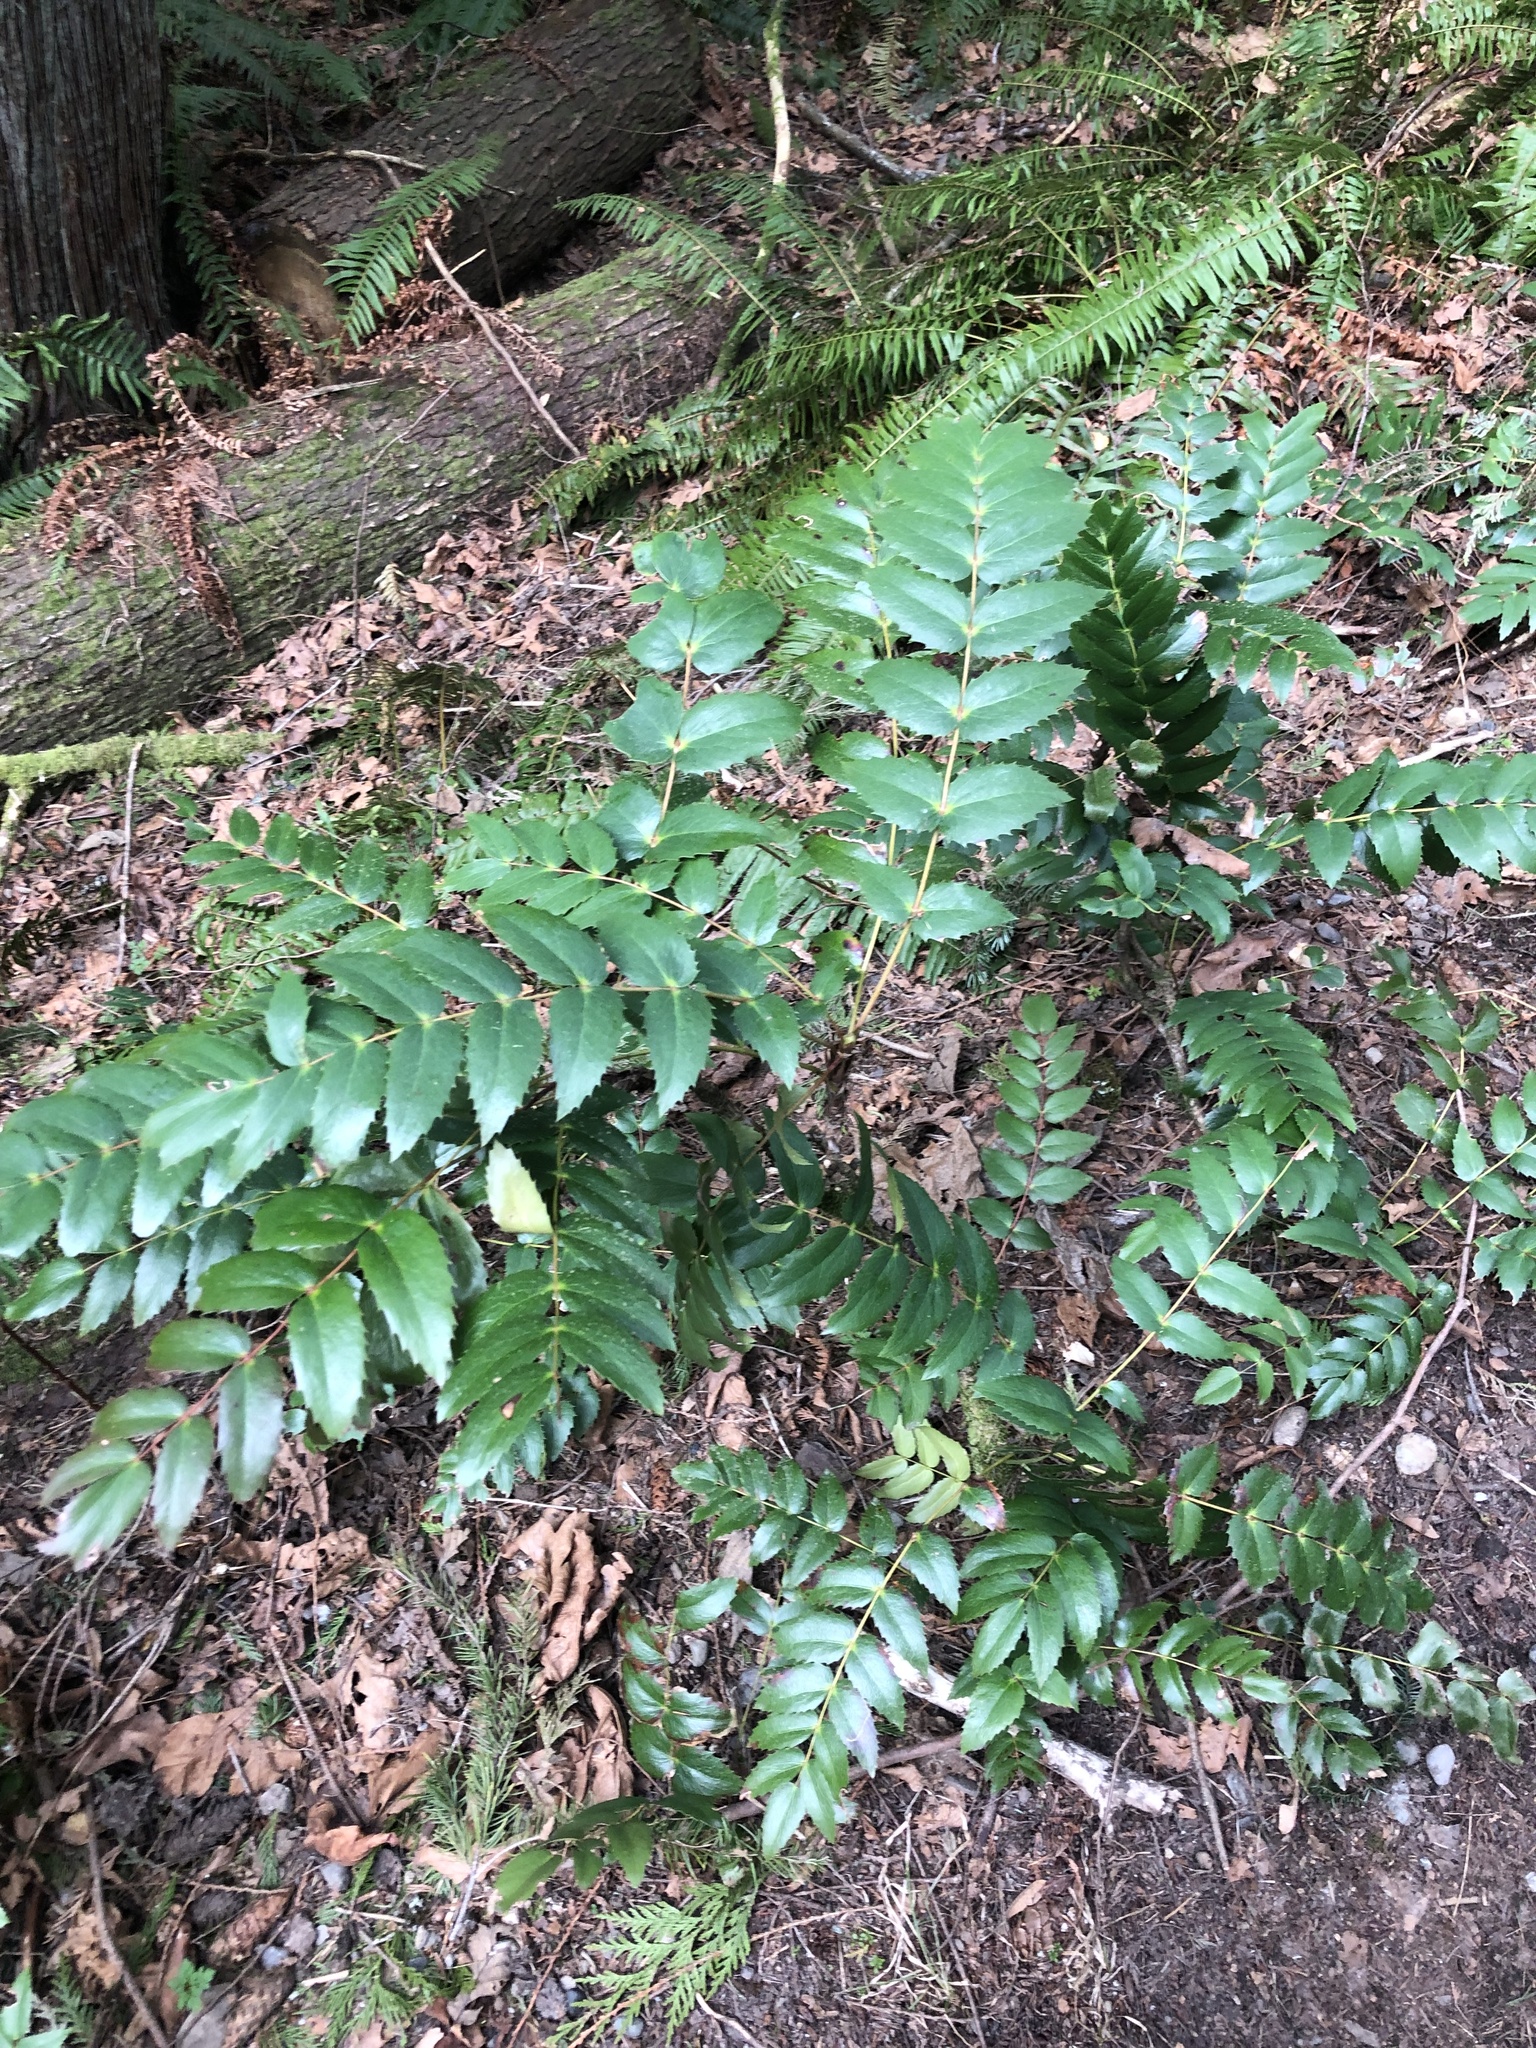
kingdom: Plantae
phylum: Tracheophyta
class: Magnoliopsida
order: Ranunculales
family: Berberidaceae
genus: Mahonia
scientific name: Mahonia nervosa
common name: Cascade oregon-grape
